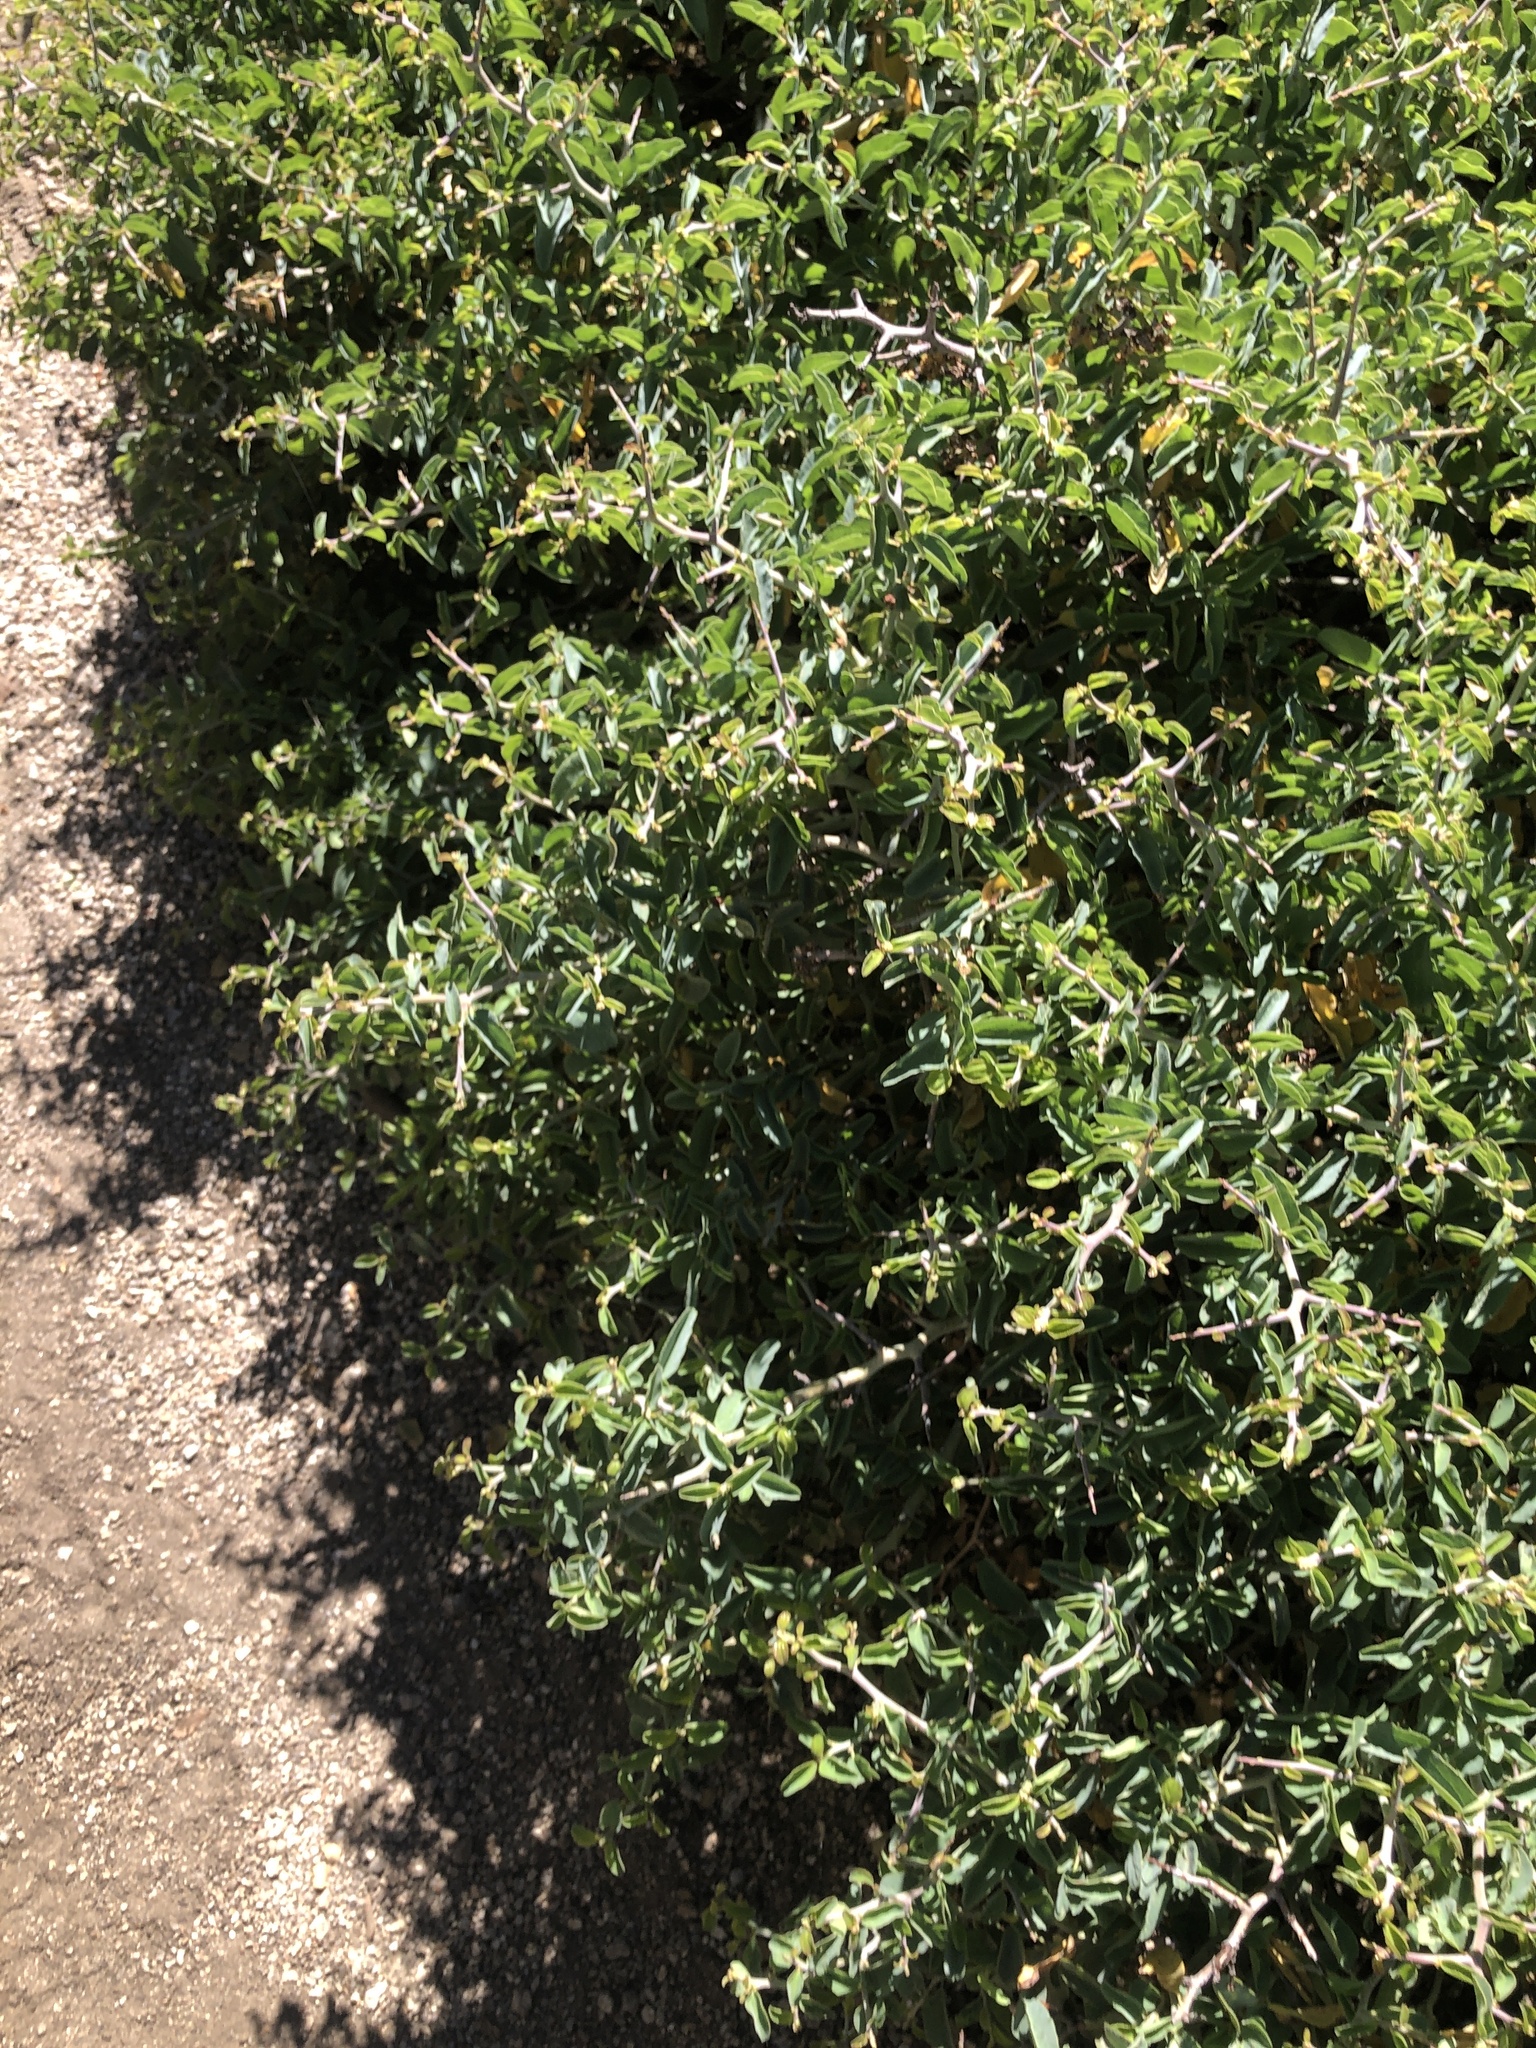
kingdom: Plantae
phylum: Tracheophyta
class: Magnoliopsida
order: Rosales
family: Rhamnaceae
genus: Ceanothus
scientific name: Ceanothus cordulatus
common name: Mountain whitethorn
